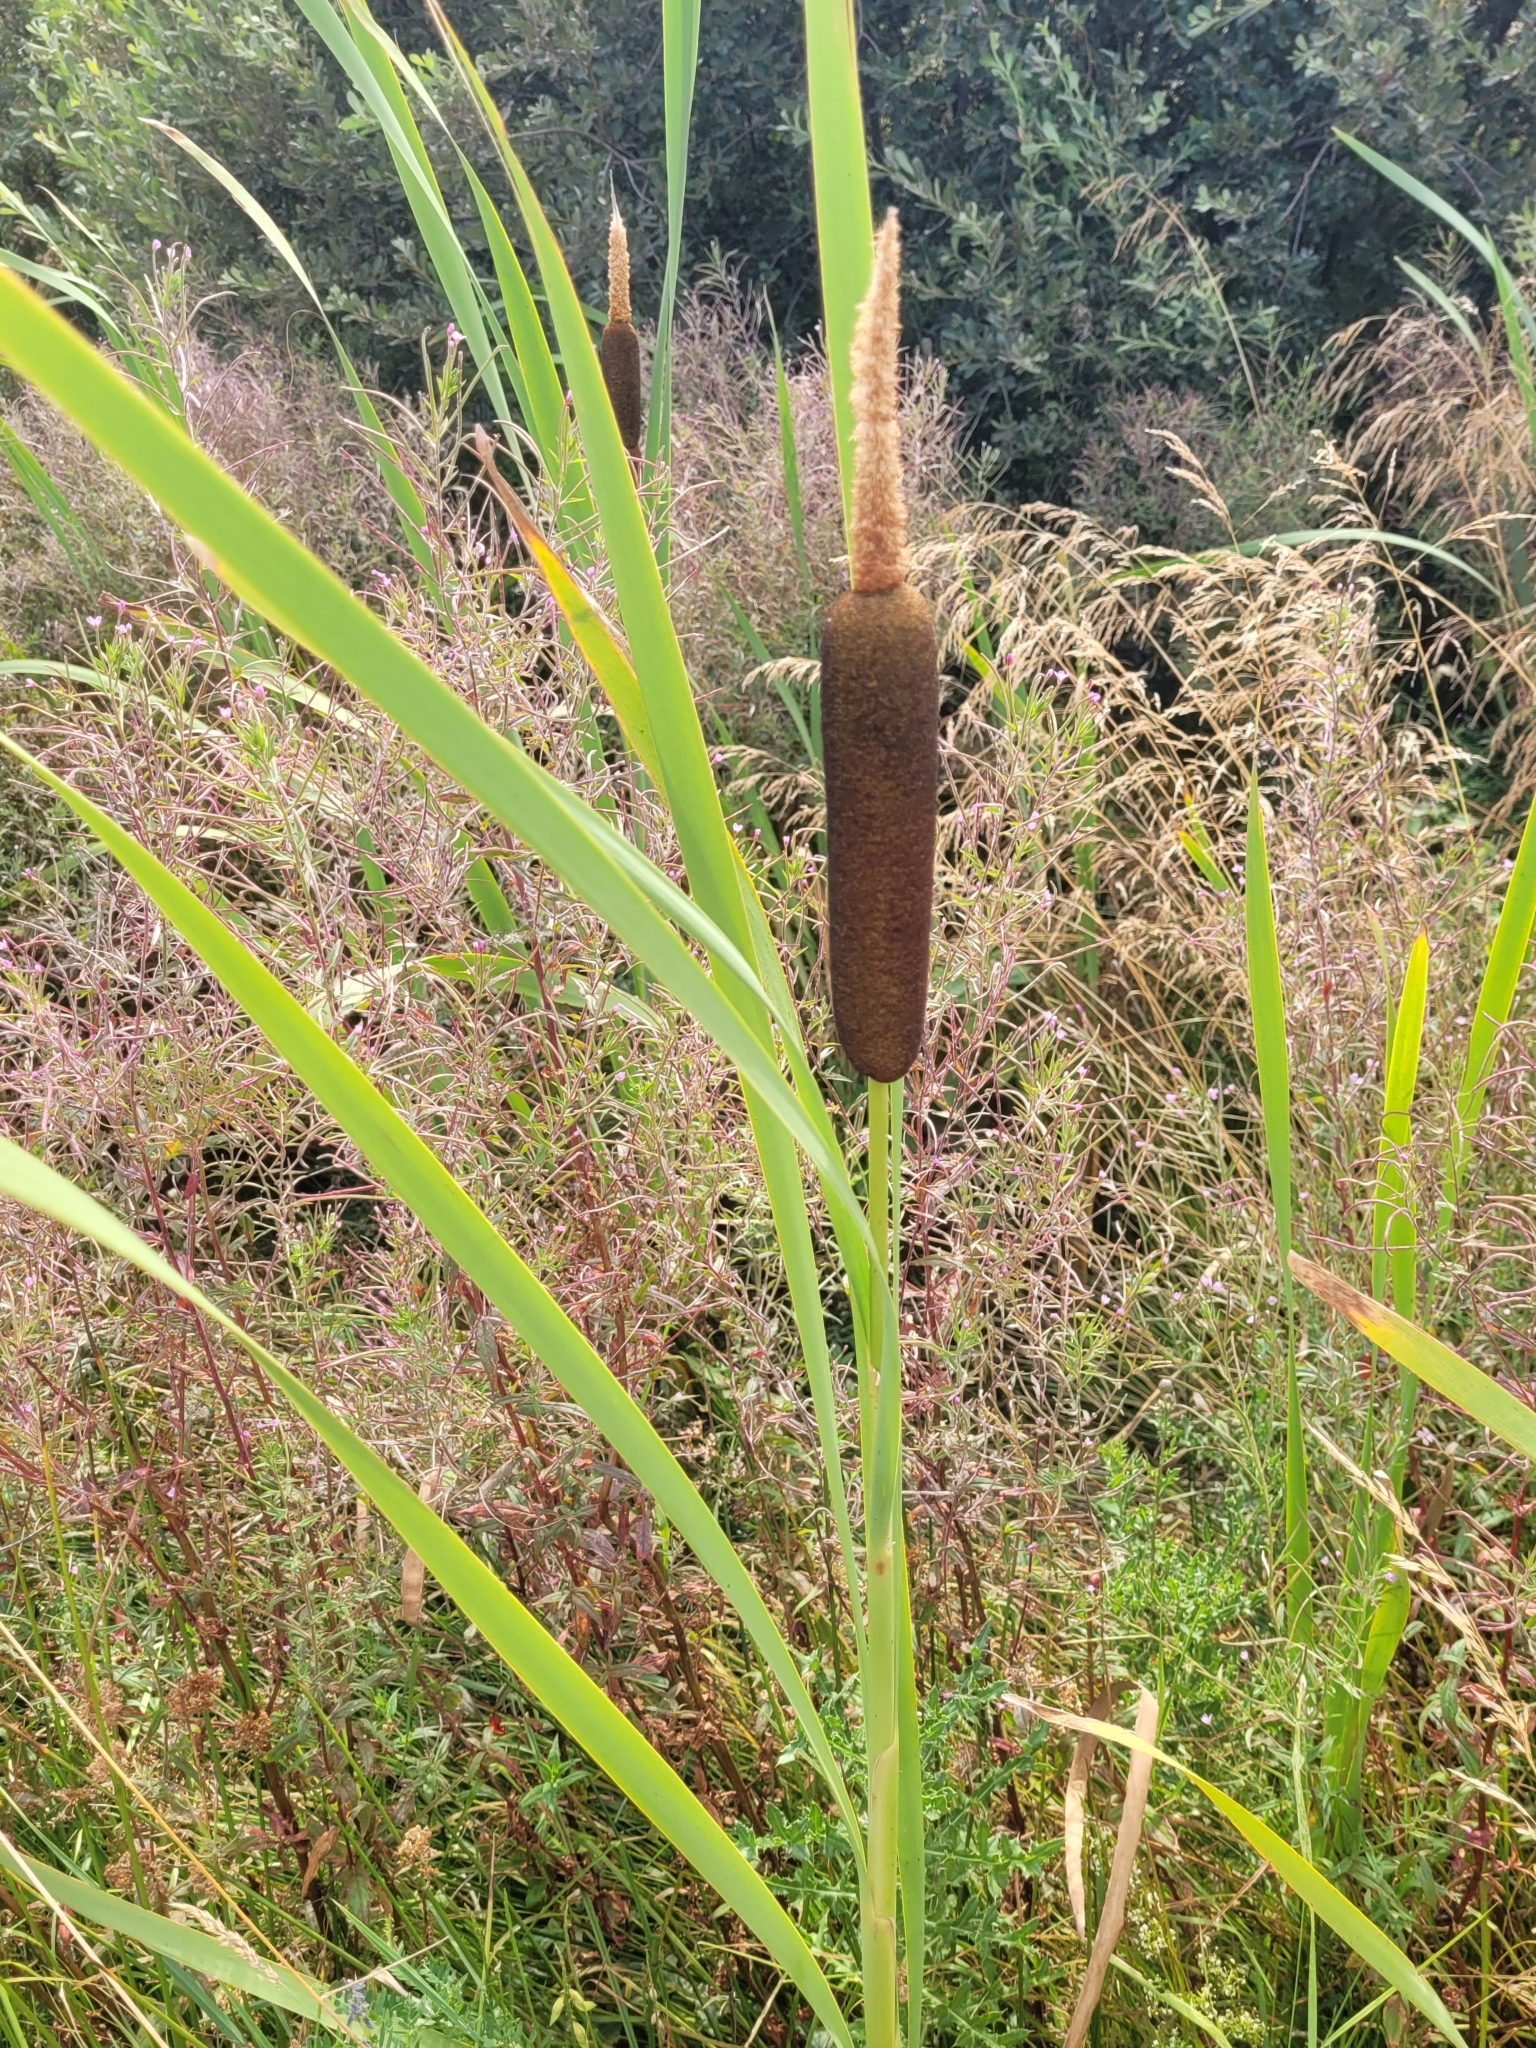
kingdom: Plantae
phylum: Tracheophyta
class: Liliopsida
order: Poales
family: Typhaceae
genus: Typha
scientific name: Typha latifolia
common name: Broadleaf cattail
